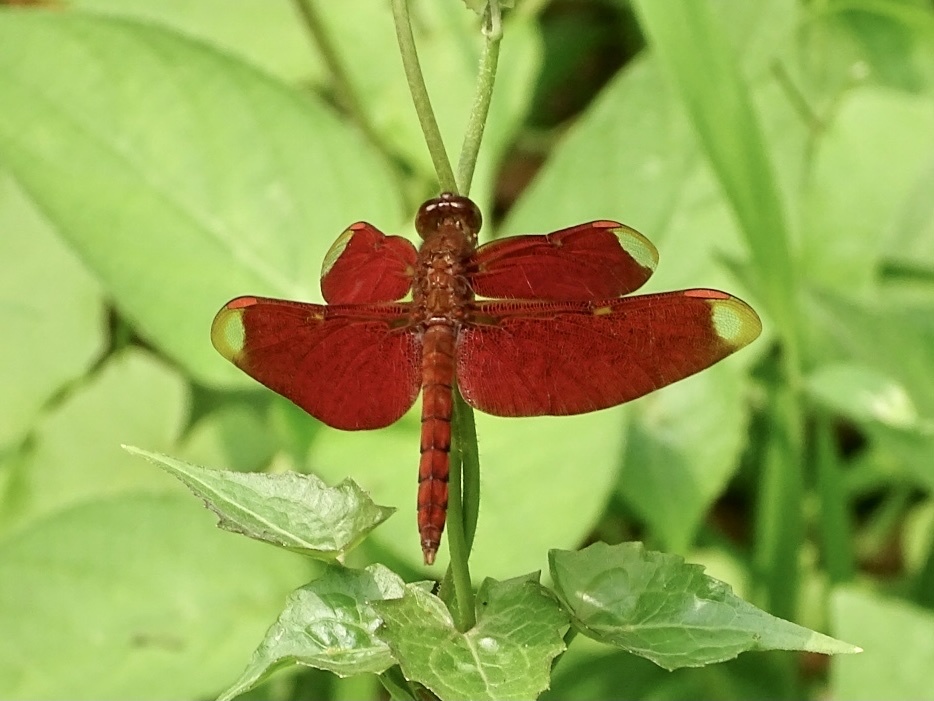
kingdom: Animalia
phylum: Arthropoda
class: Insecta
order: Odonata
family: Libellulidae
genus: Neurothemis
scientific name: Neurothemis fulvia
